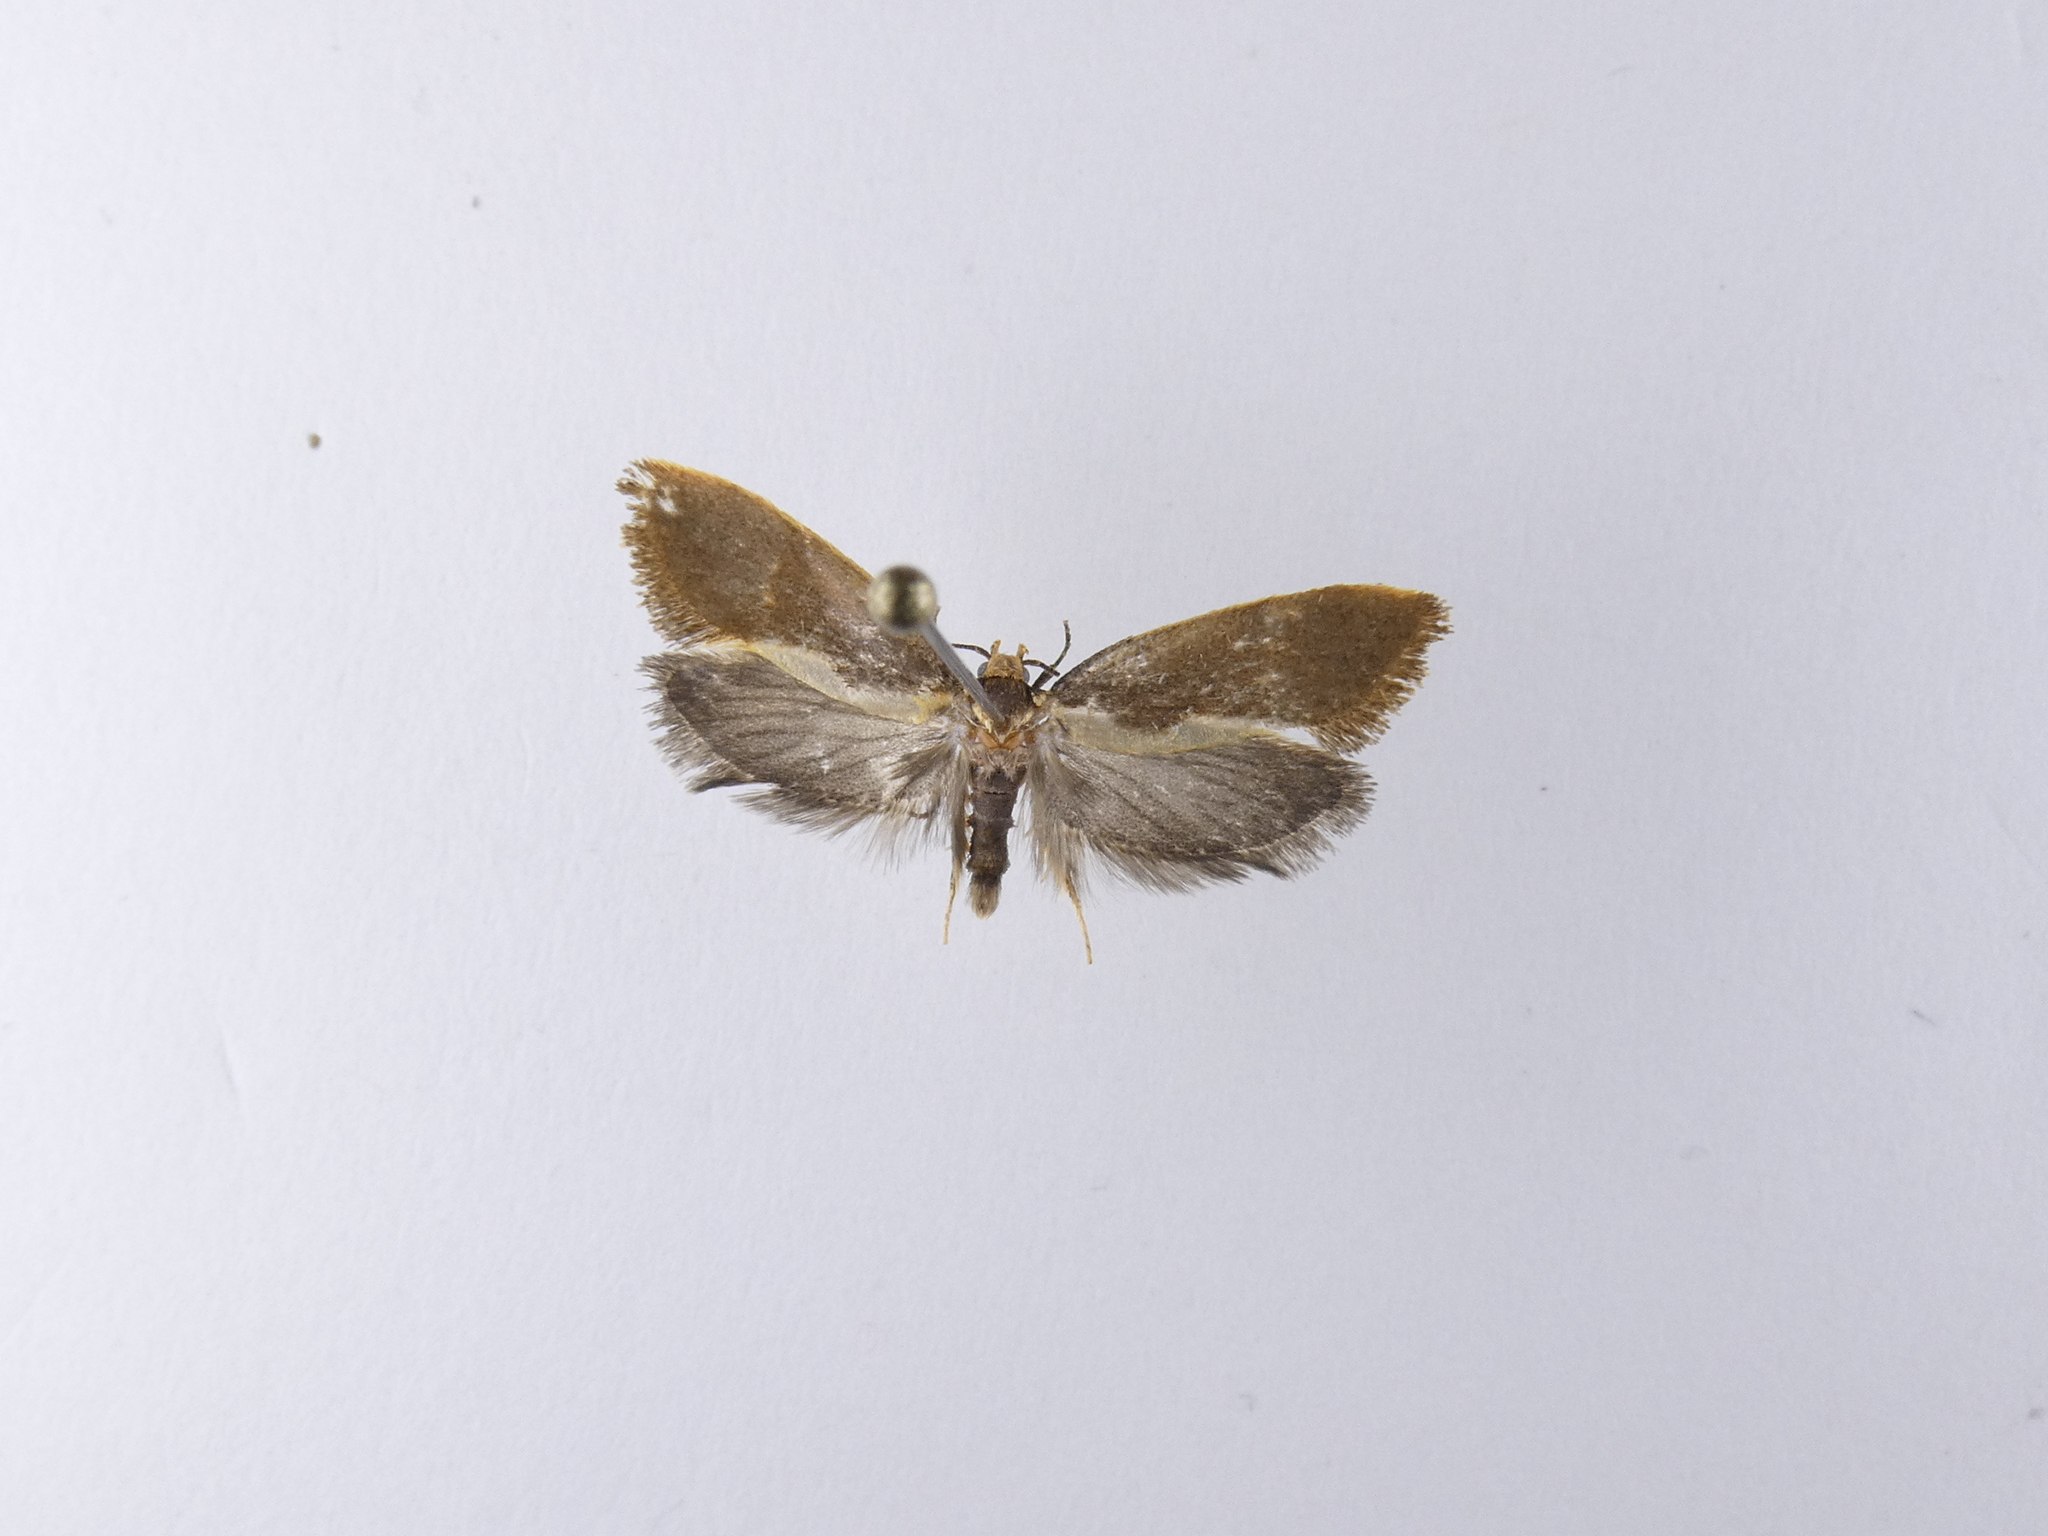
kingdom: Animalia
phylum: Arthropoda
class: Insecta
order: Lepidoptera
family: Oecophoridae
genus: Tingena
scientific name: Tingena basella
